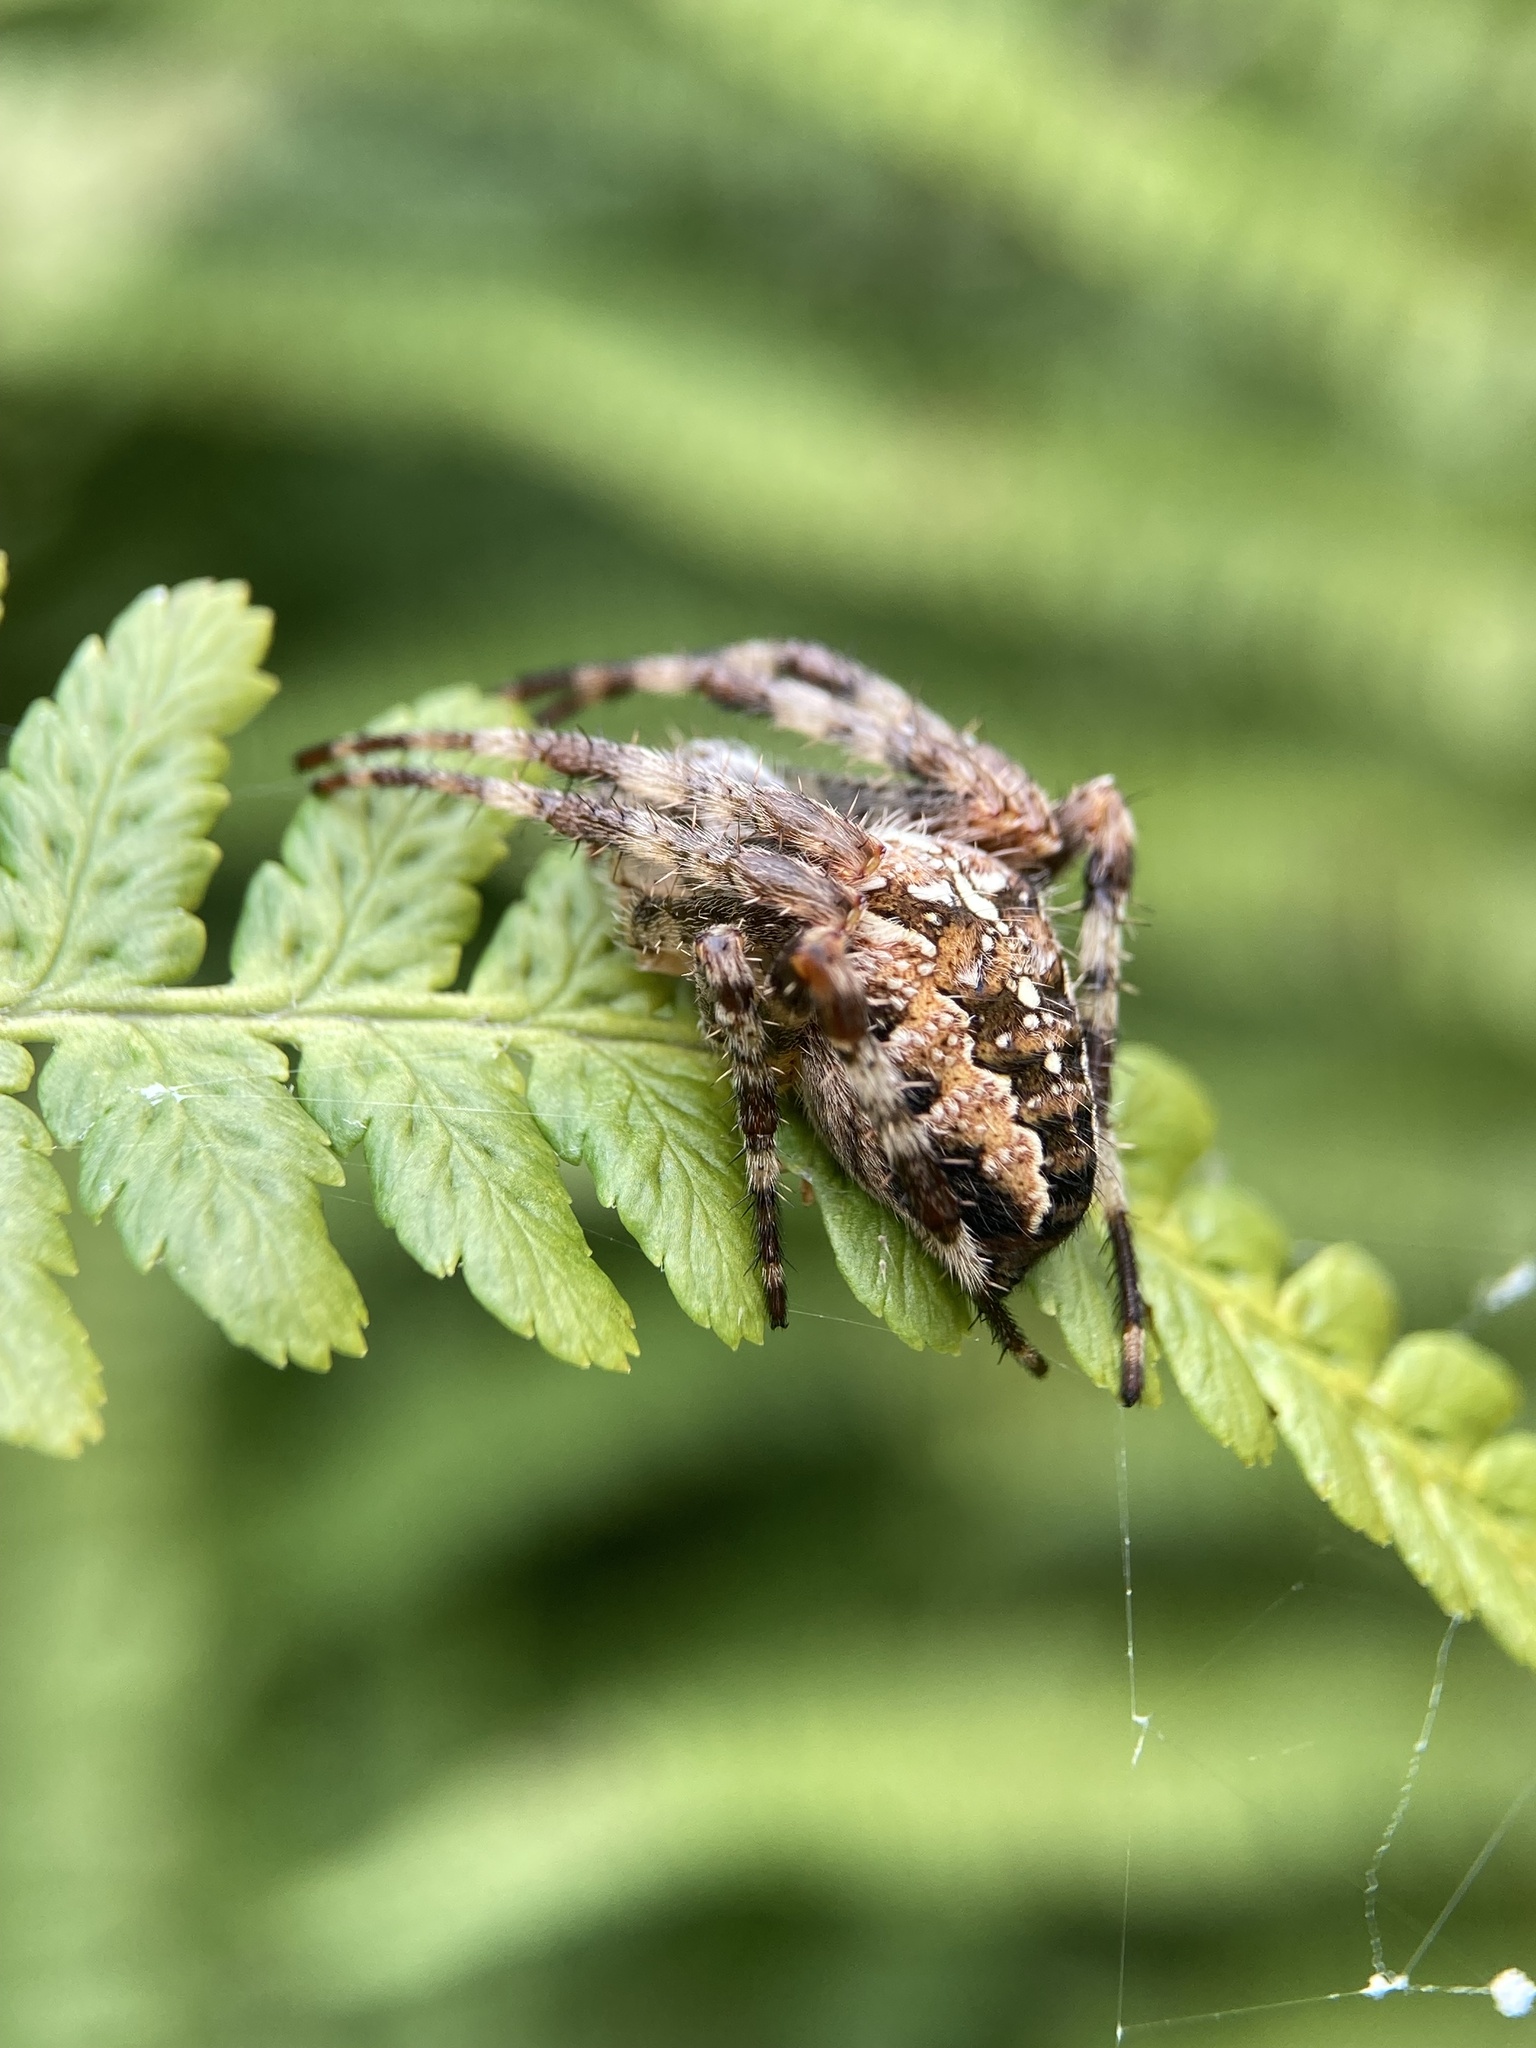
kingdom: Animalia
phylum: Arthropoda
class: Arachnida
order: Araneae
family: Araneidae
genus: Araneus
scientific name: Araneus diadematus
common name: Cross orbweaver
